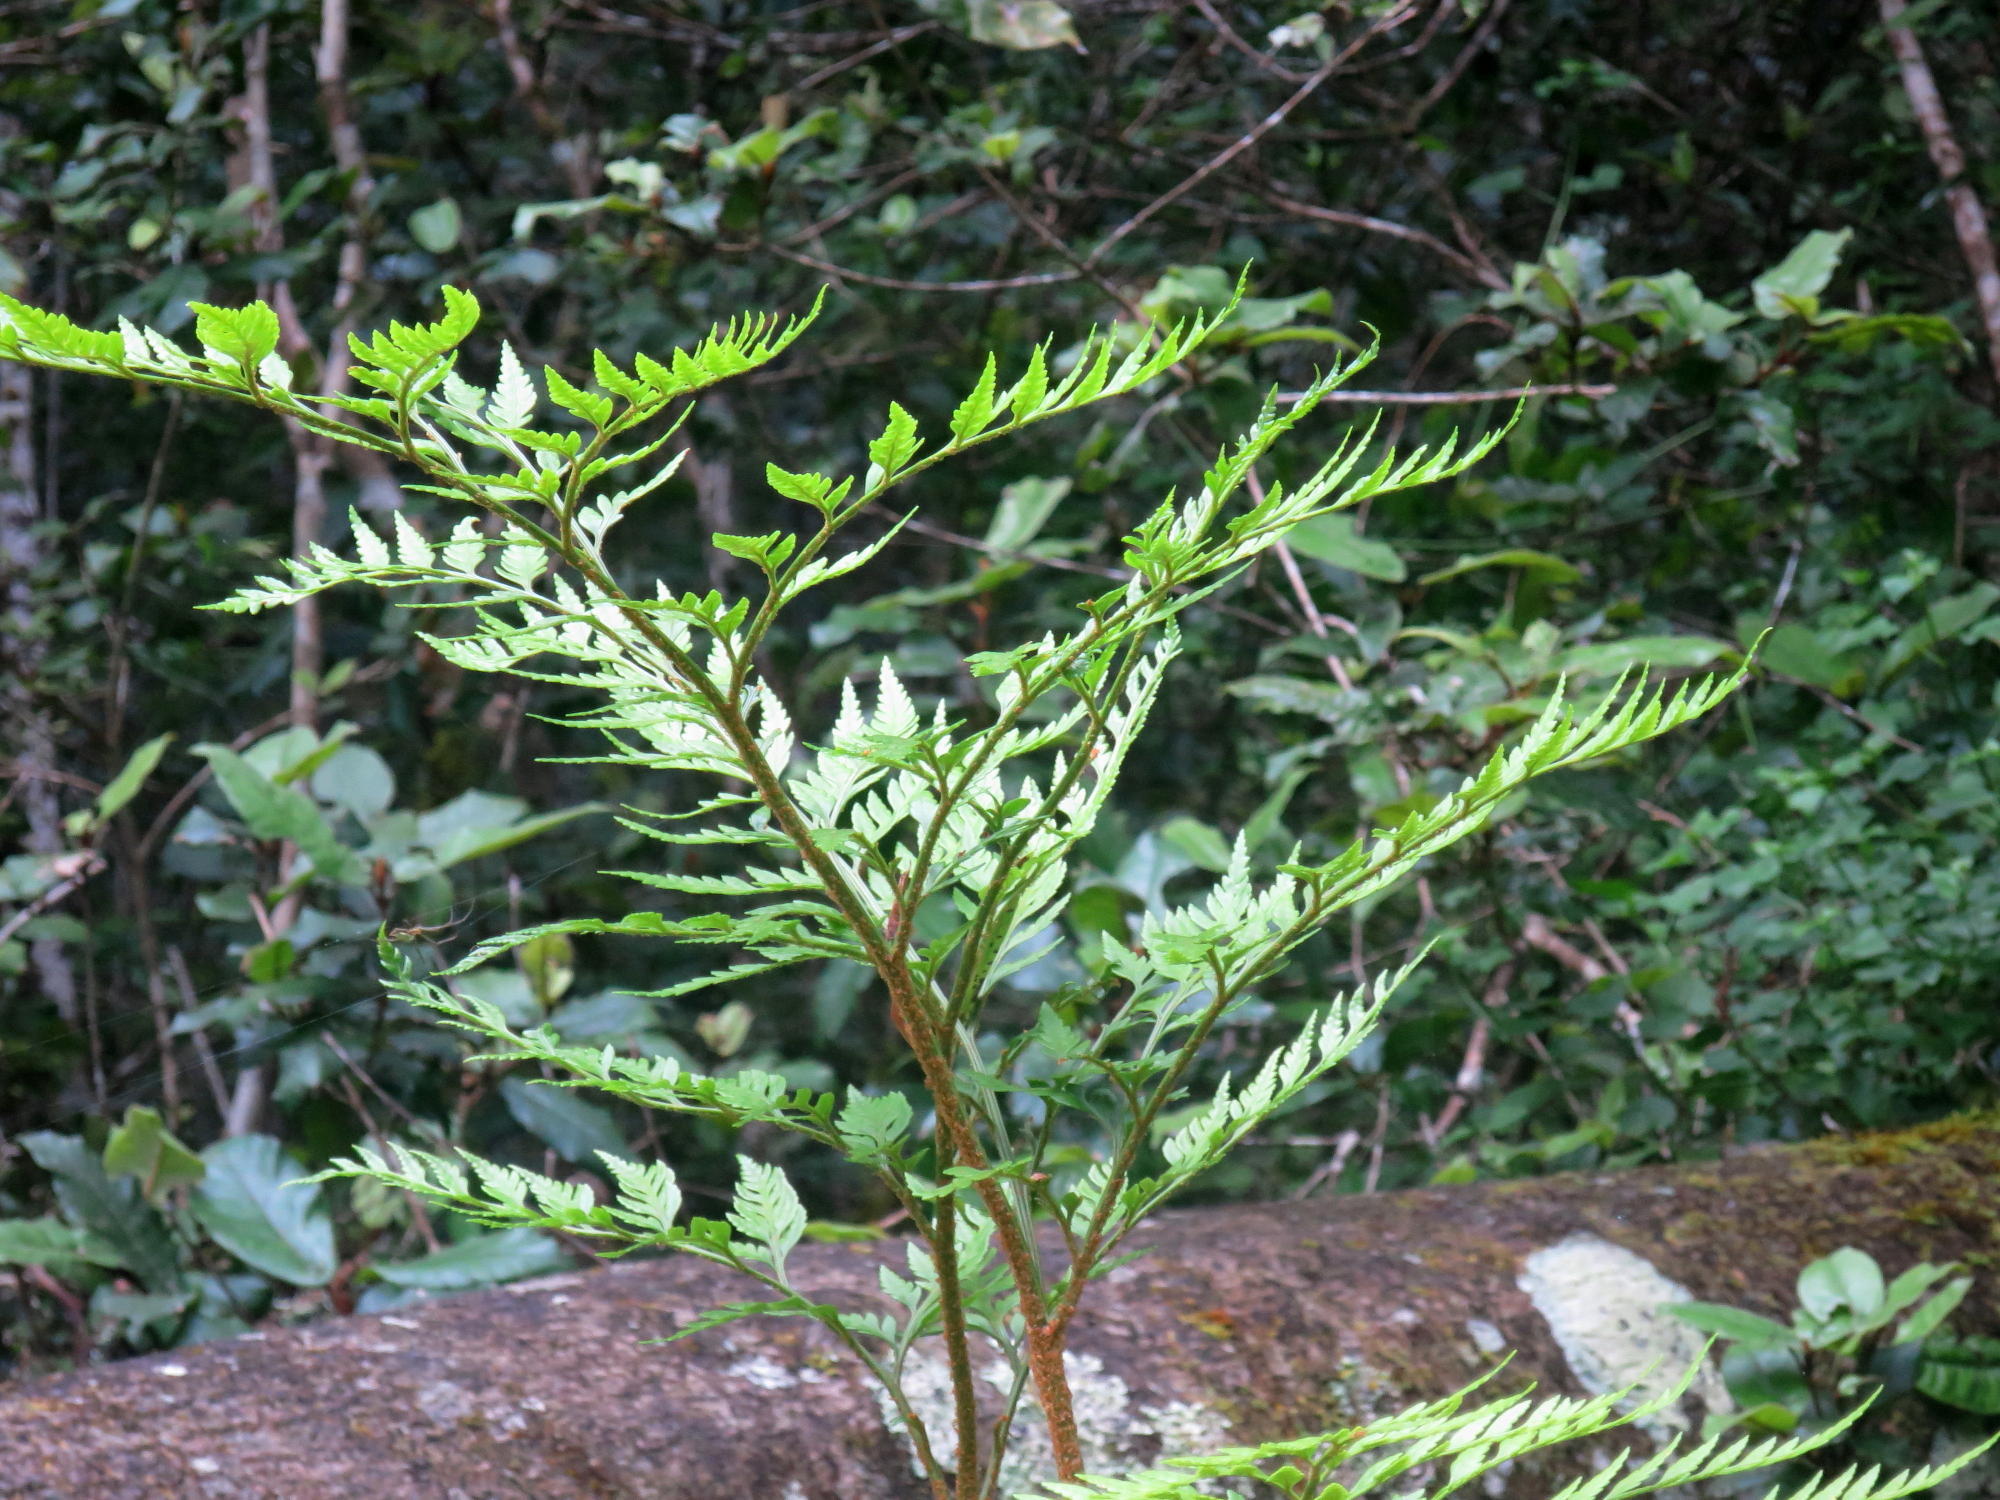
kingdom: Plantae
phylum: Tracheophyta
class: Polypodiopsida
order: Polypodiales
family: Dryopteridaceae
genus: Rumohra
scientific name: Rumohra adiantiformis
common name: Leather fern
